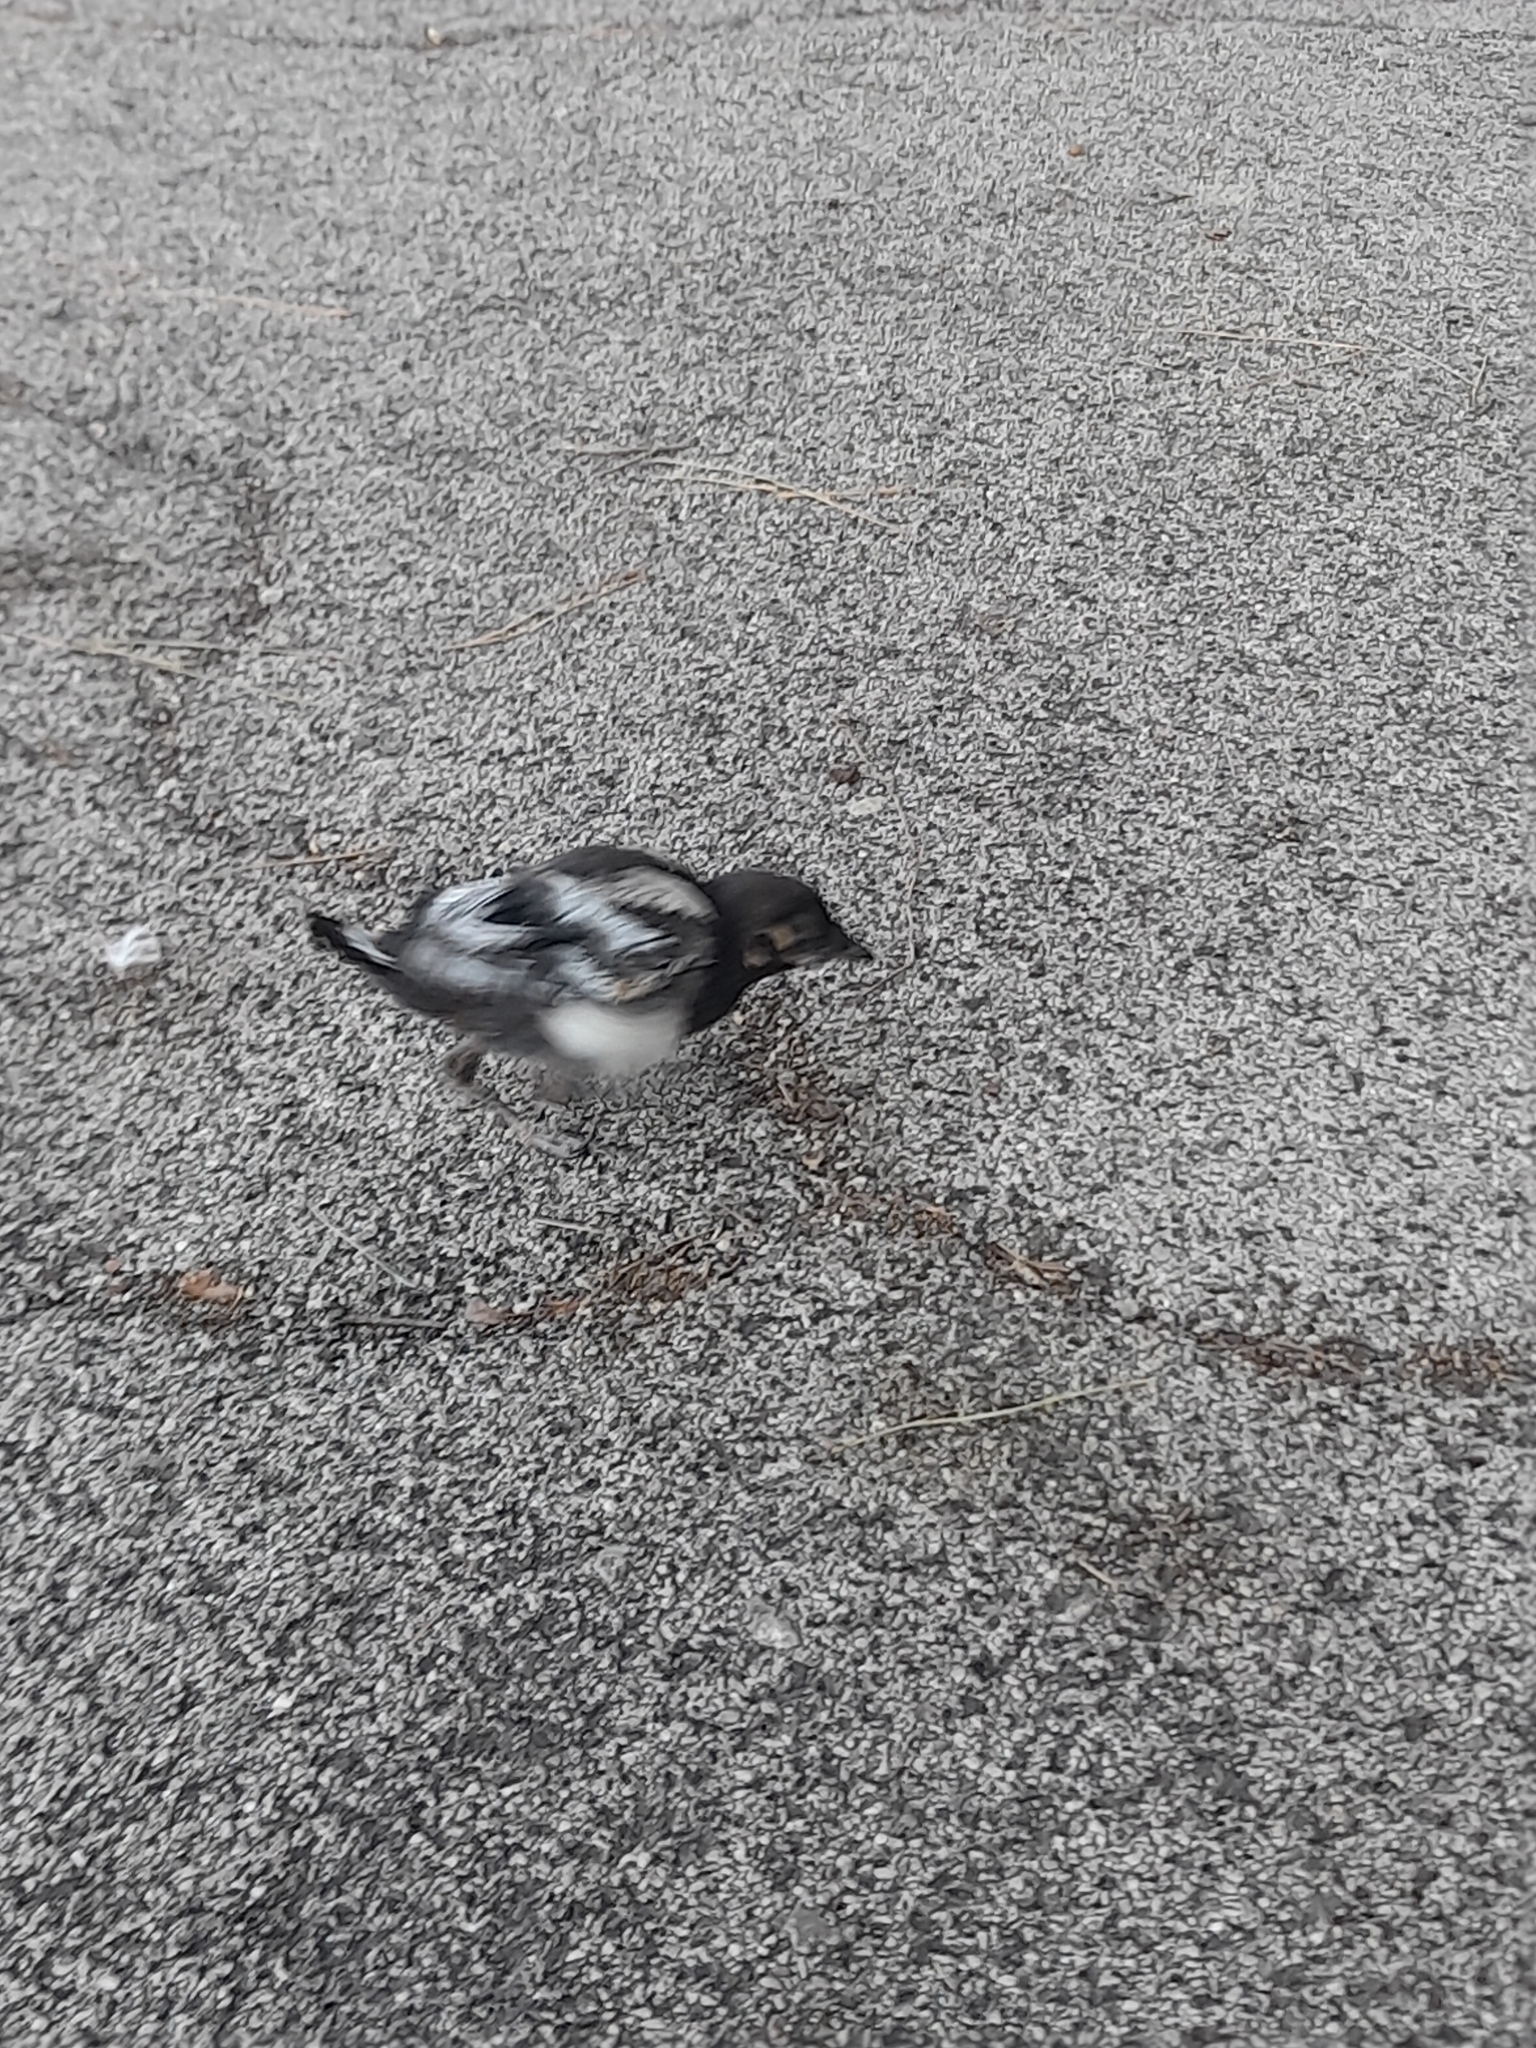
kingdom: Animalia
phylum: Chordata
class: Aves
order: Passeriformes
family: Corvidae
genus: Pica
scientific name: Pica pica
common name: Eurasian magpie
